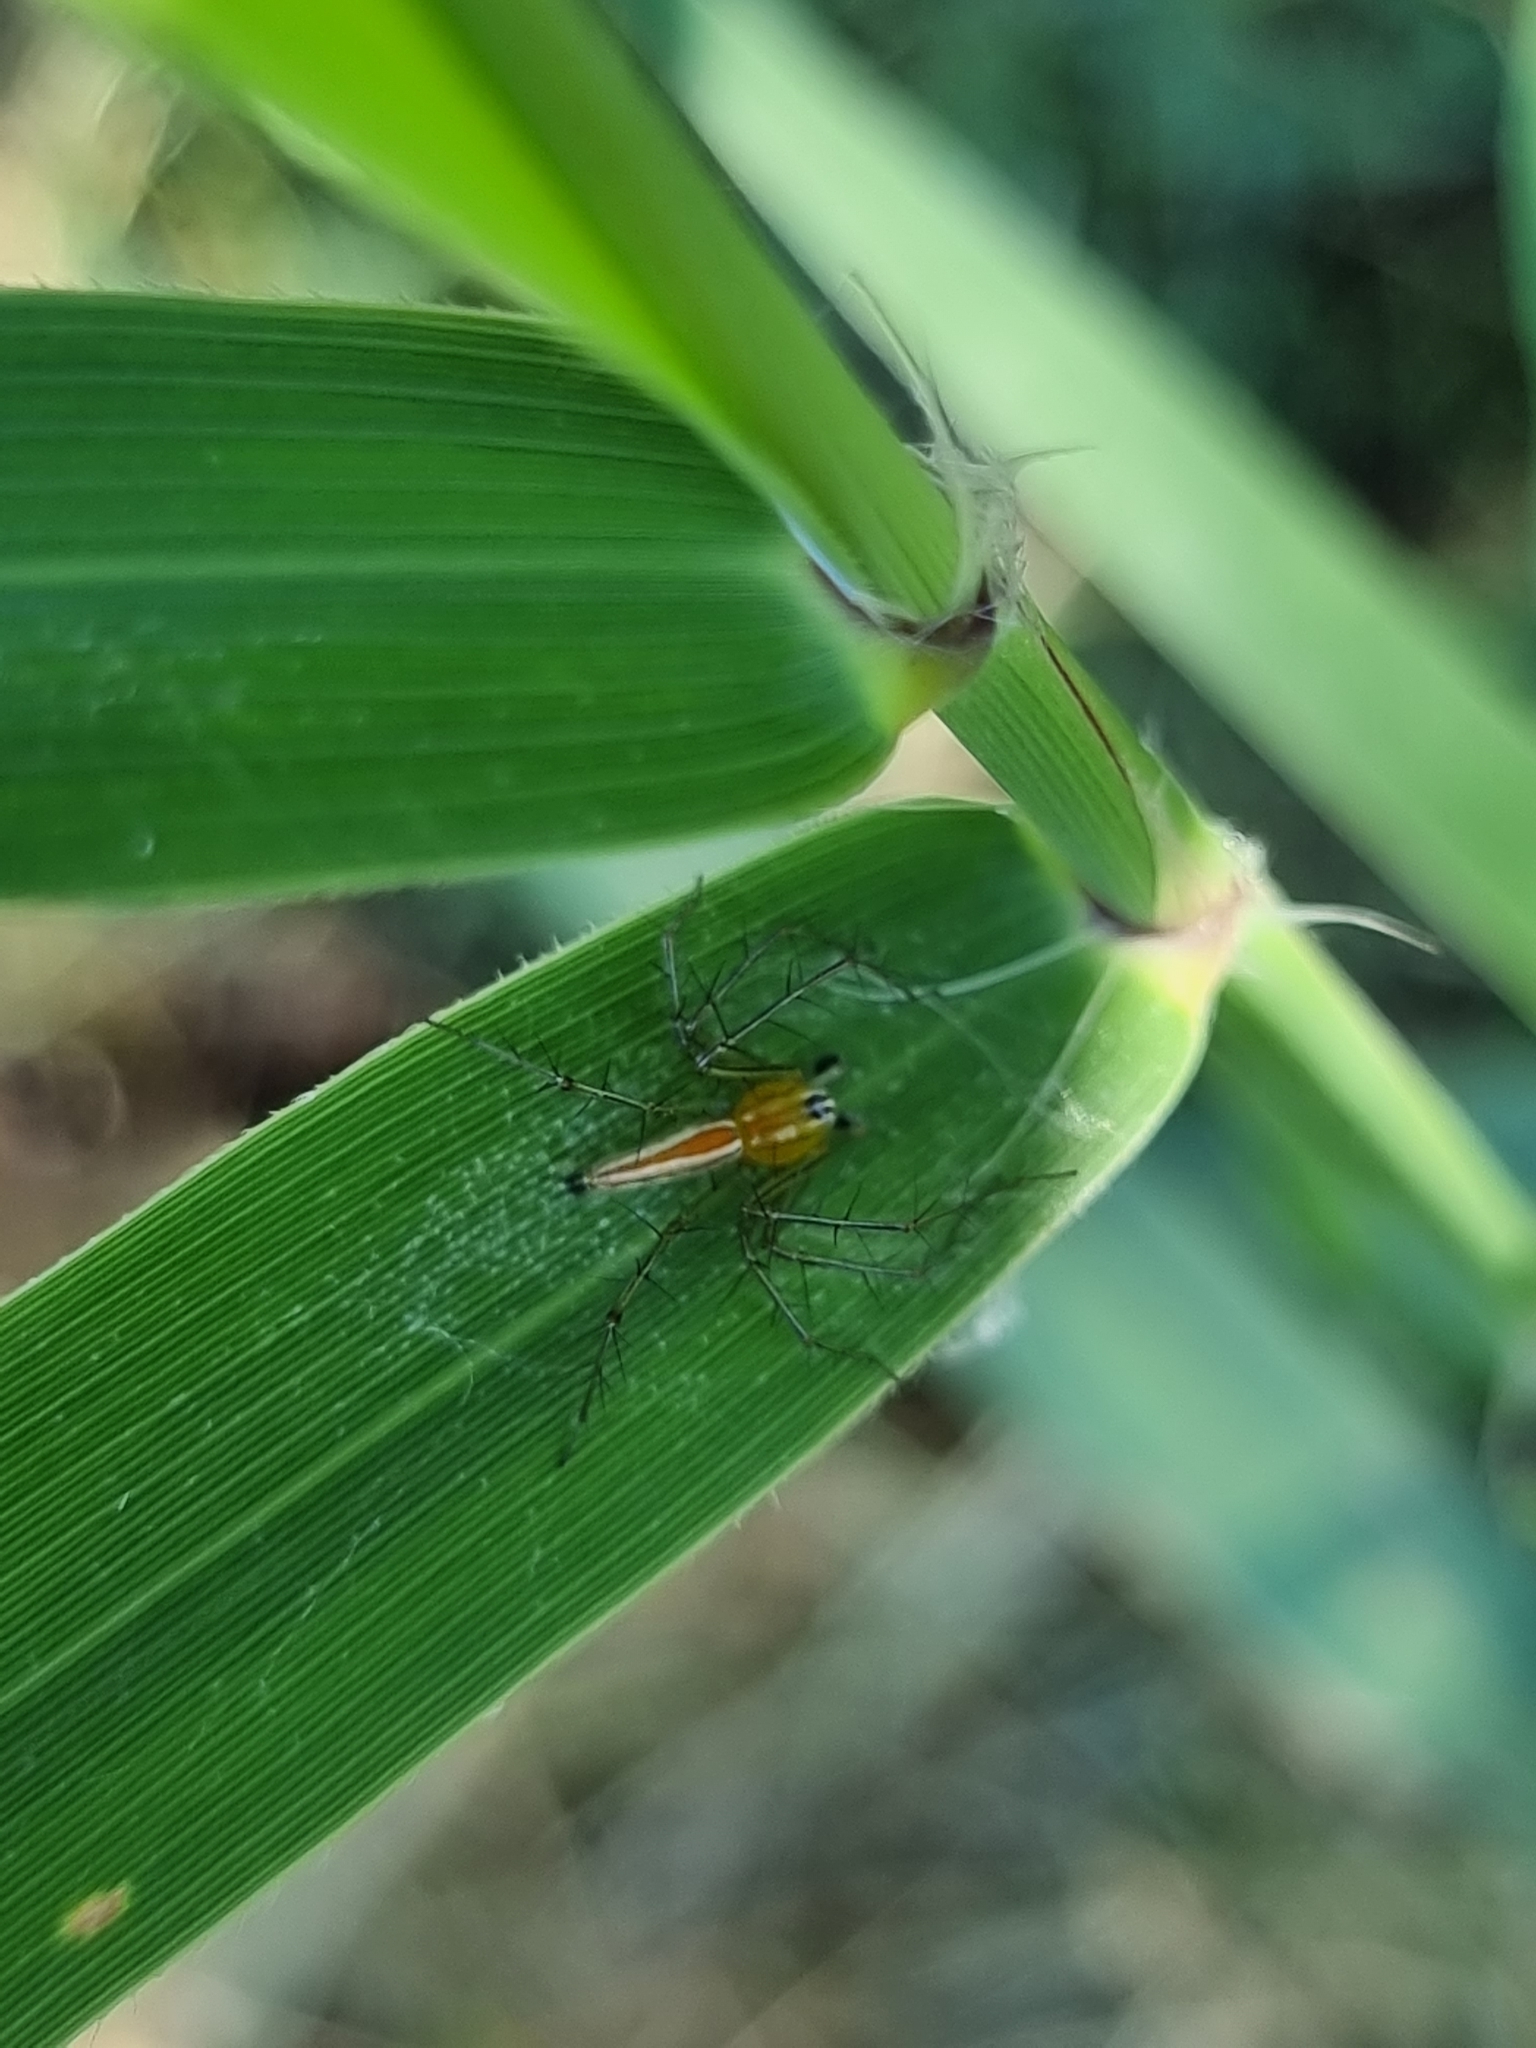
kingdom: Animalia
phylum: Arthropoda
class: Arachnida
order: Araneae
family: Oxyopidae
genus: Oxyopes
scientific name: Oxyopes macilentus
